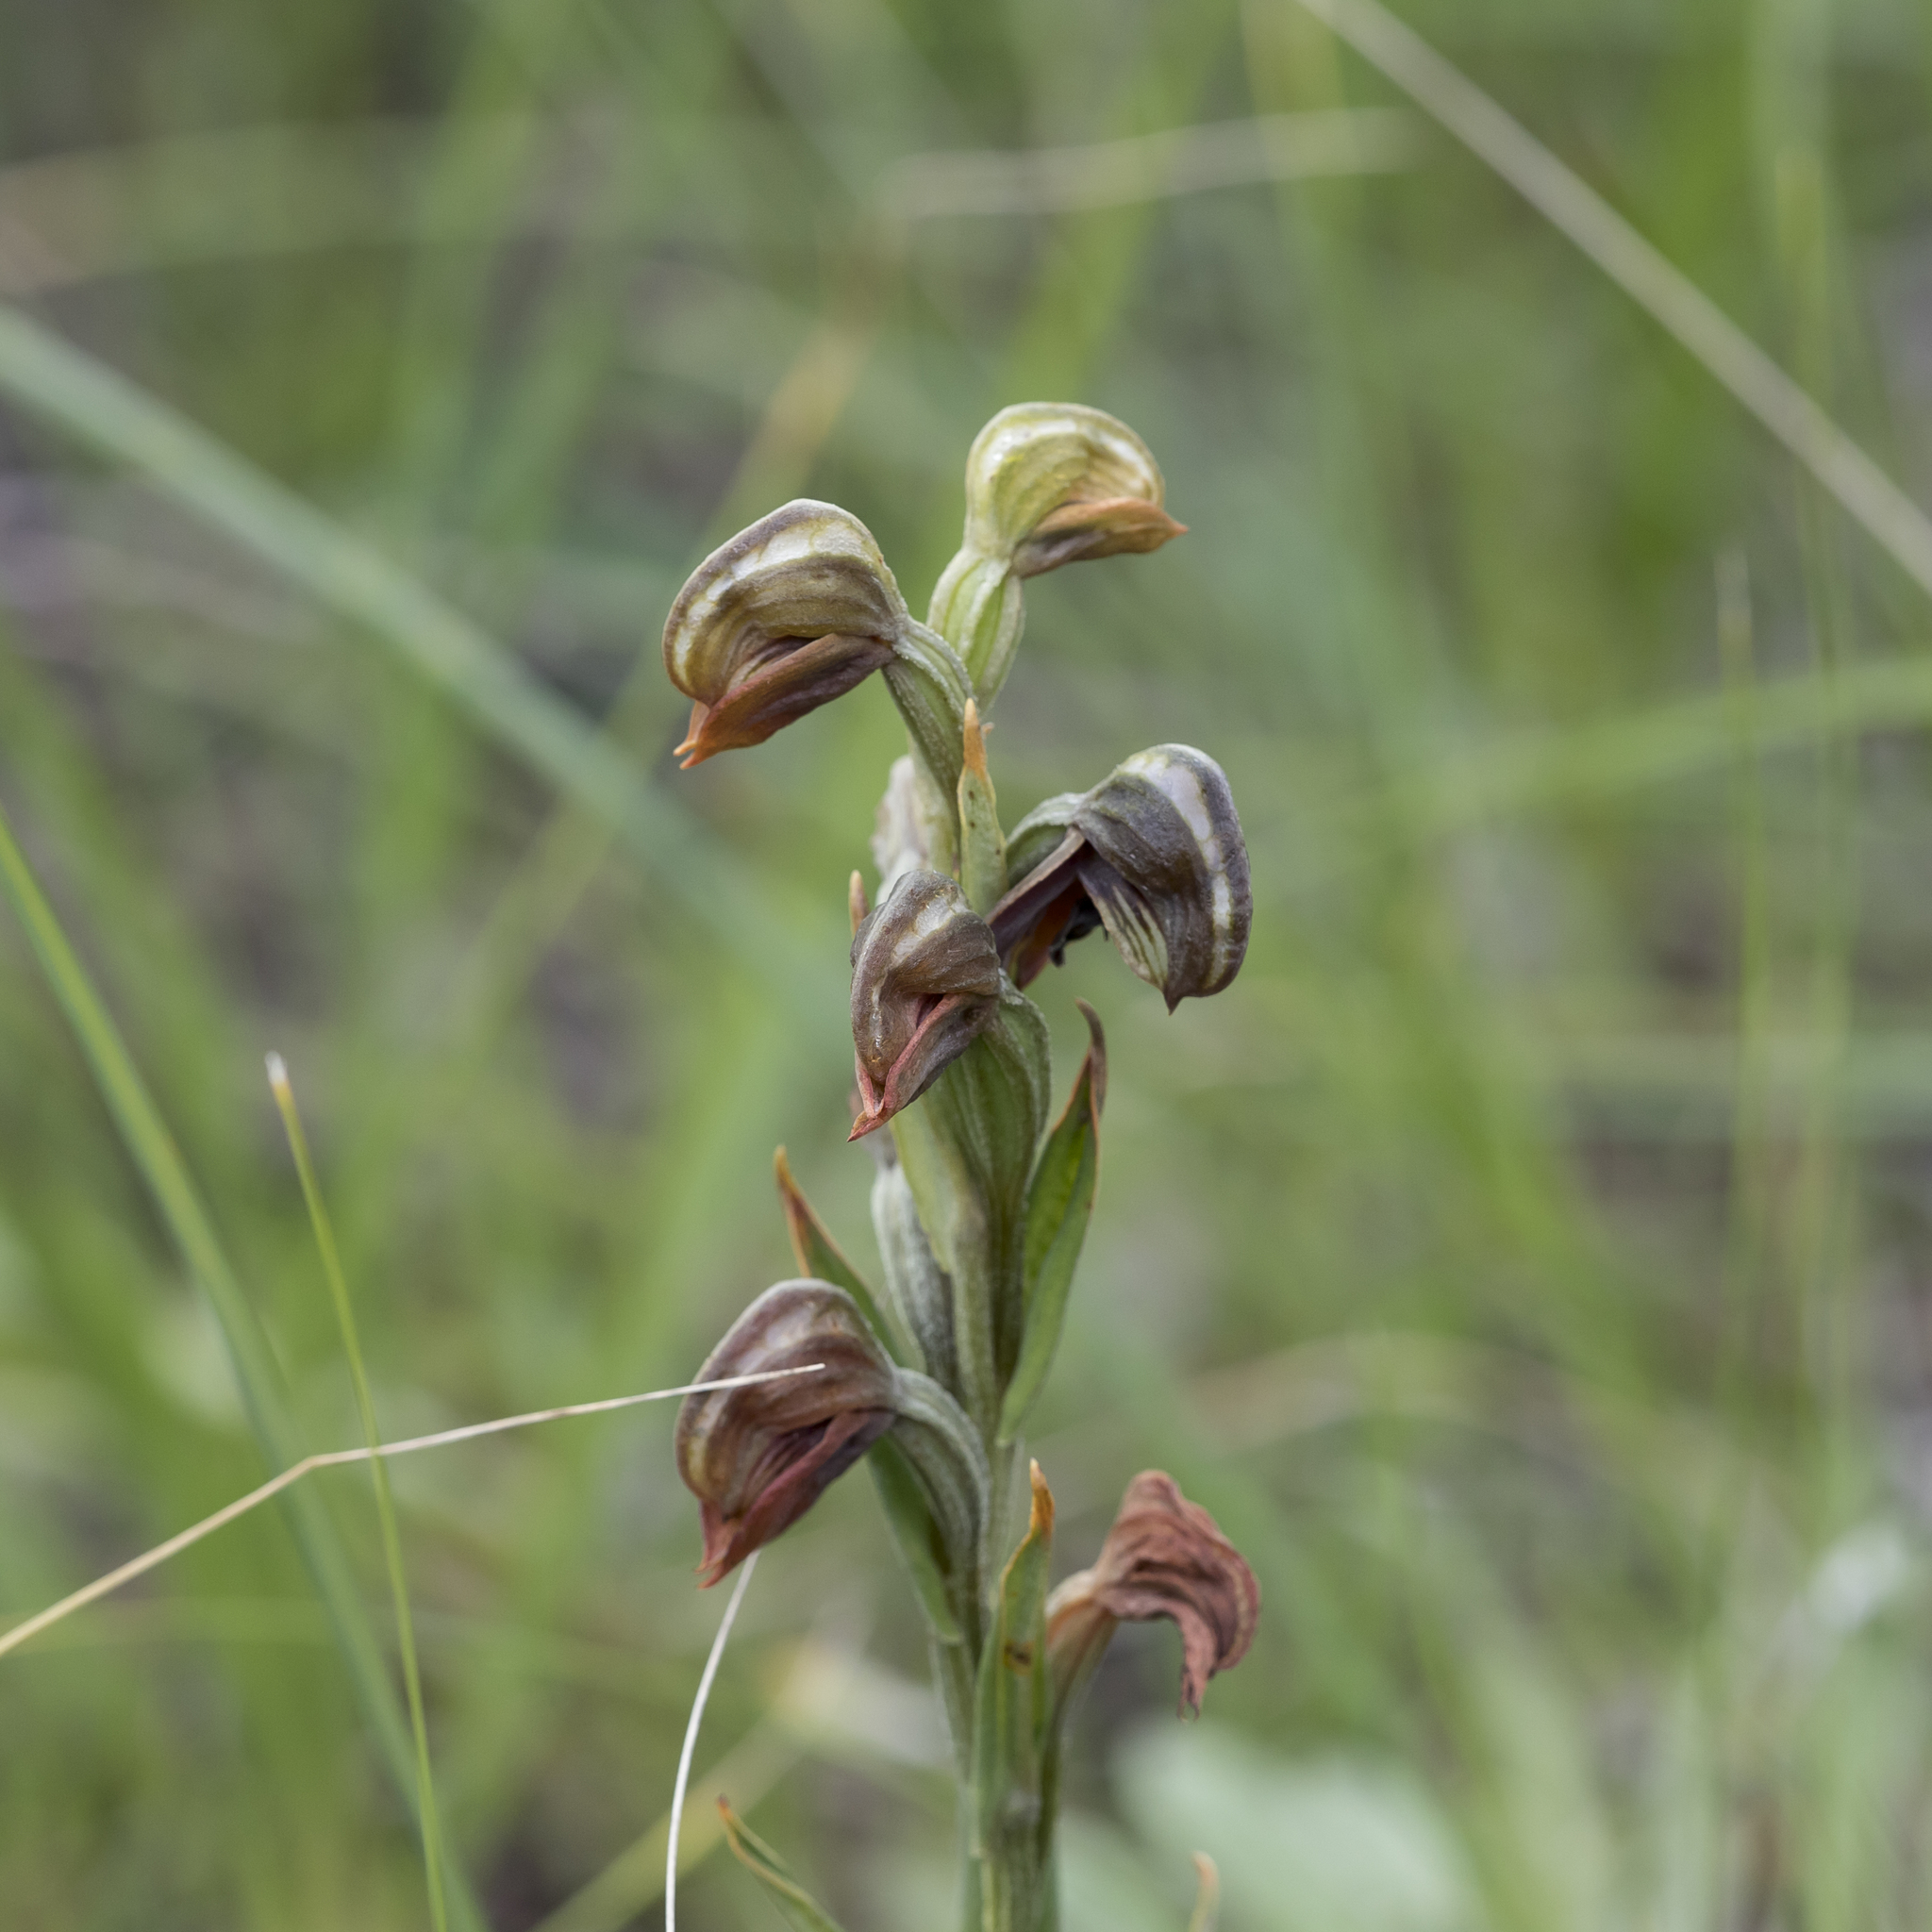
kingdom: Plantae
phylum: Tracheophyta
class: Liliopsida
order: Asparagales
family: Orchidaceae
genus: Pterostylis
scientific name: Pterostylis sanguinea
